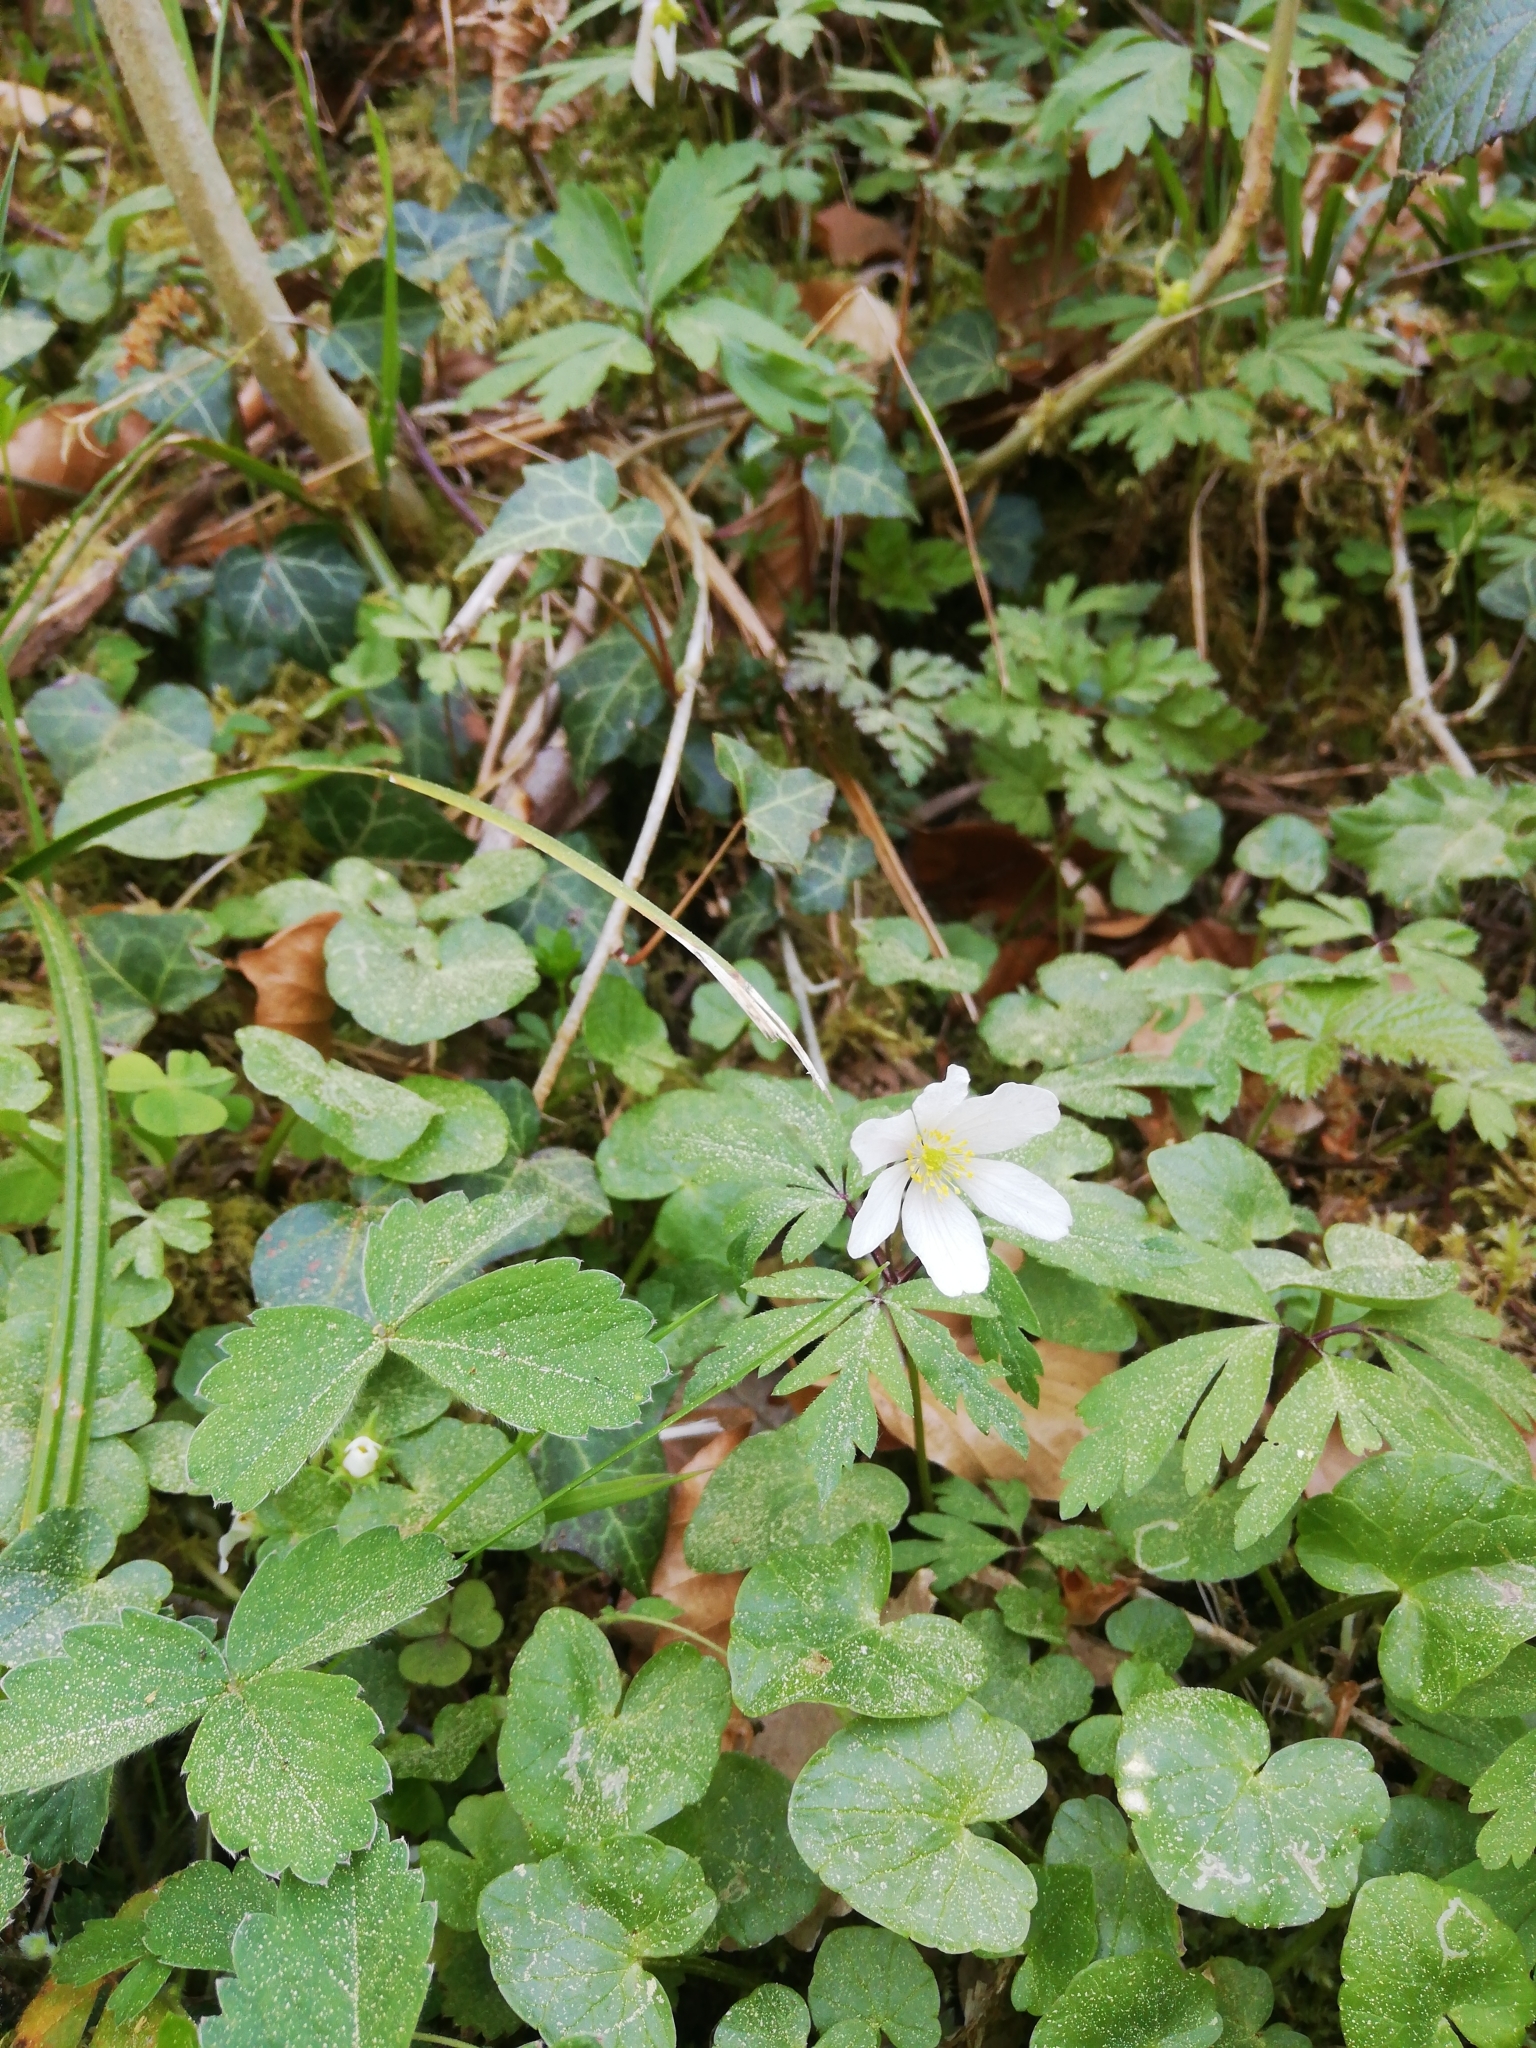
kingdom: Plantae
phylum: Tracheophyta
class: Magnoliopsida
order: Ranunculales
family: Ranunculaceae
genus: Anemone
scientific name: Anemone nemorosa
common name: Wood anemone
